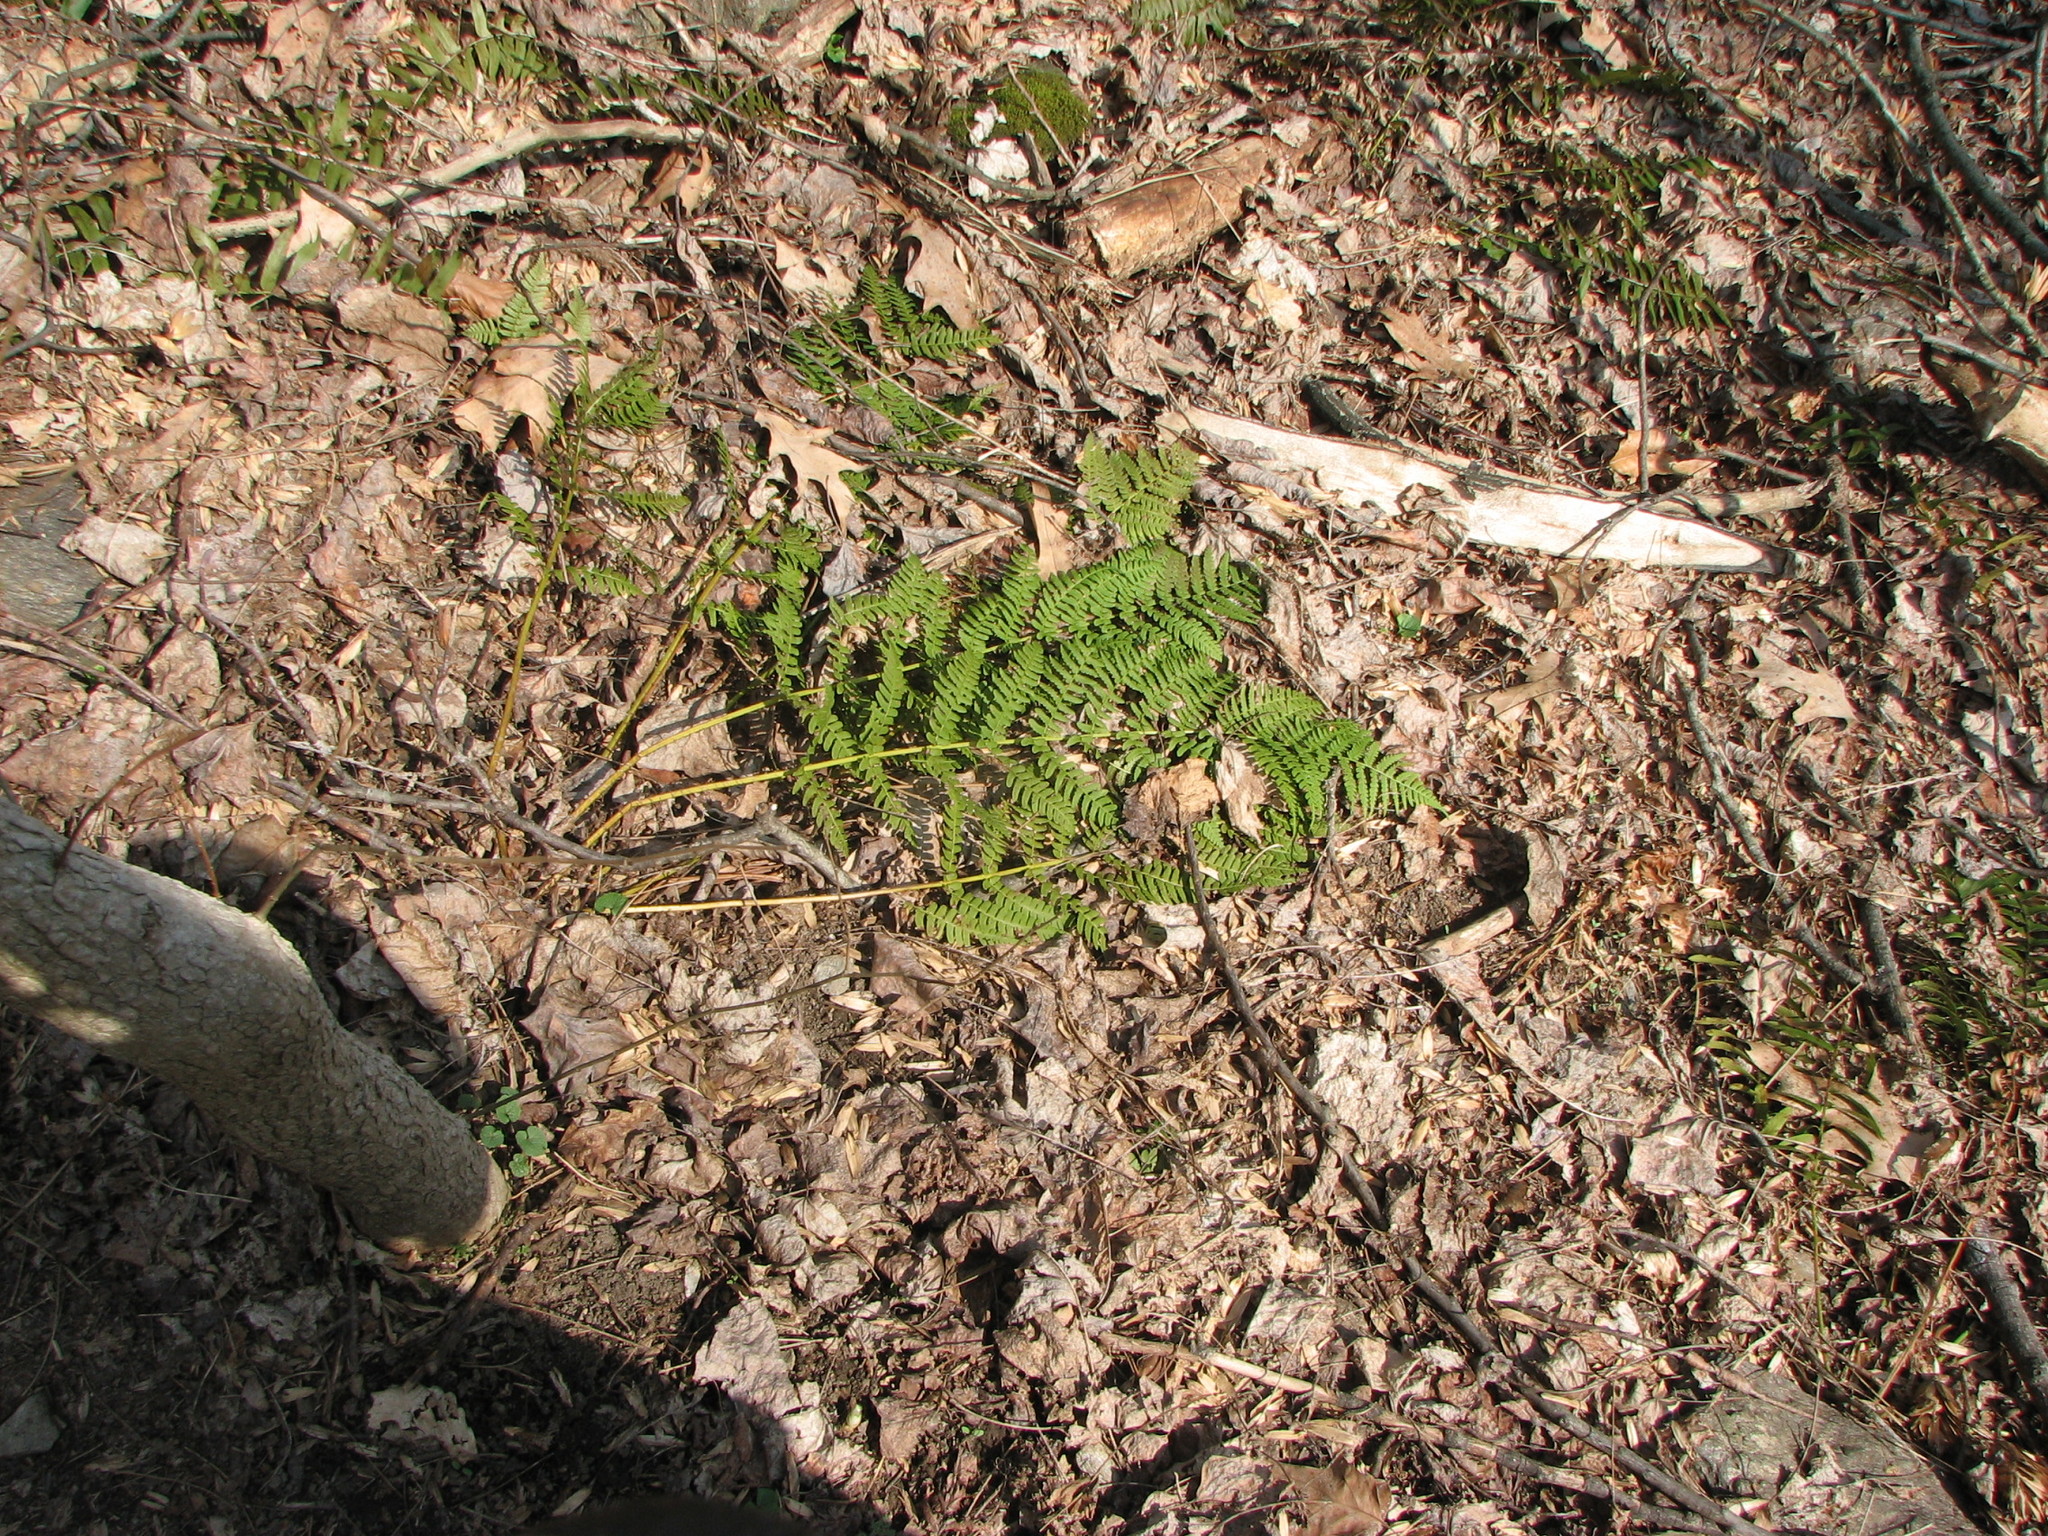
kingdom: Plantae
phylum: Tracheophyta
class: Polypodiopsida
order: Polypodiales
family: Dryopteridaceae
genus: Dryopteris
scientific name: Dryopteris marginalis
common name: Marginal wood fern
